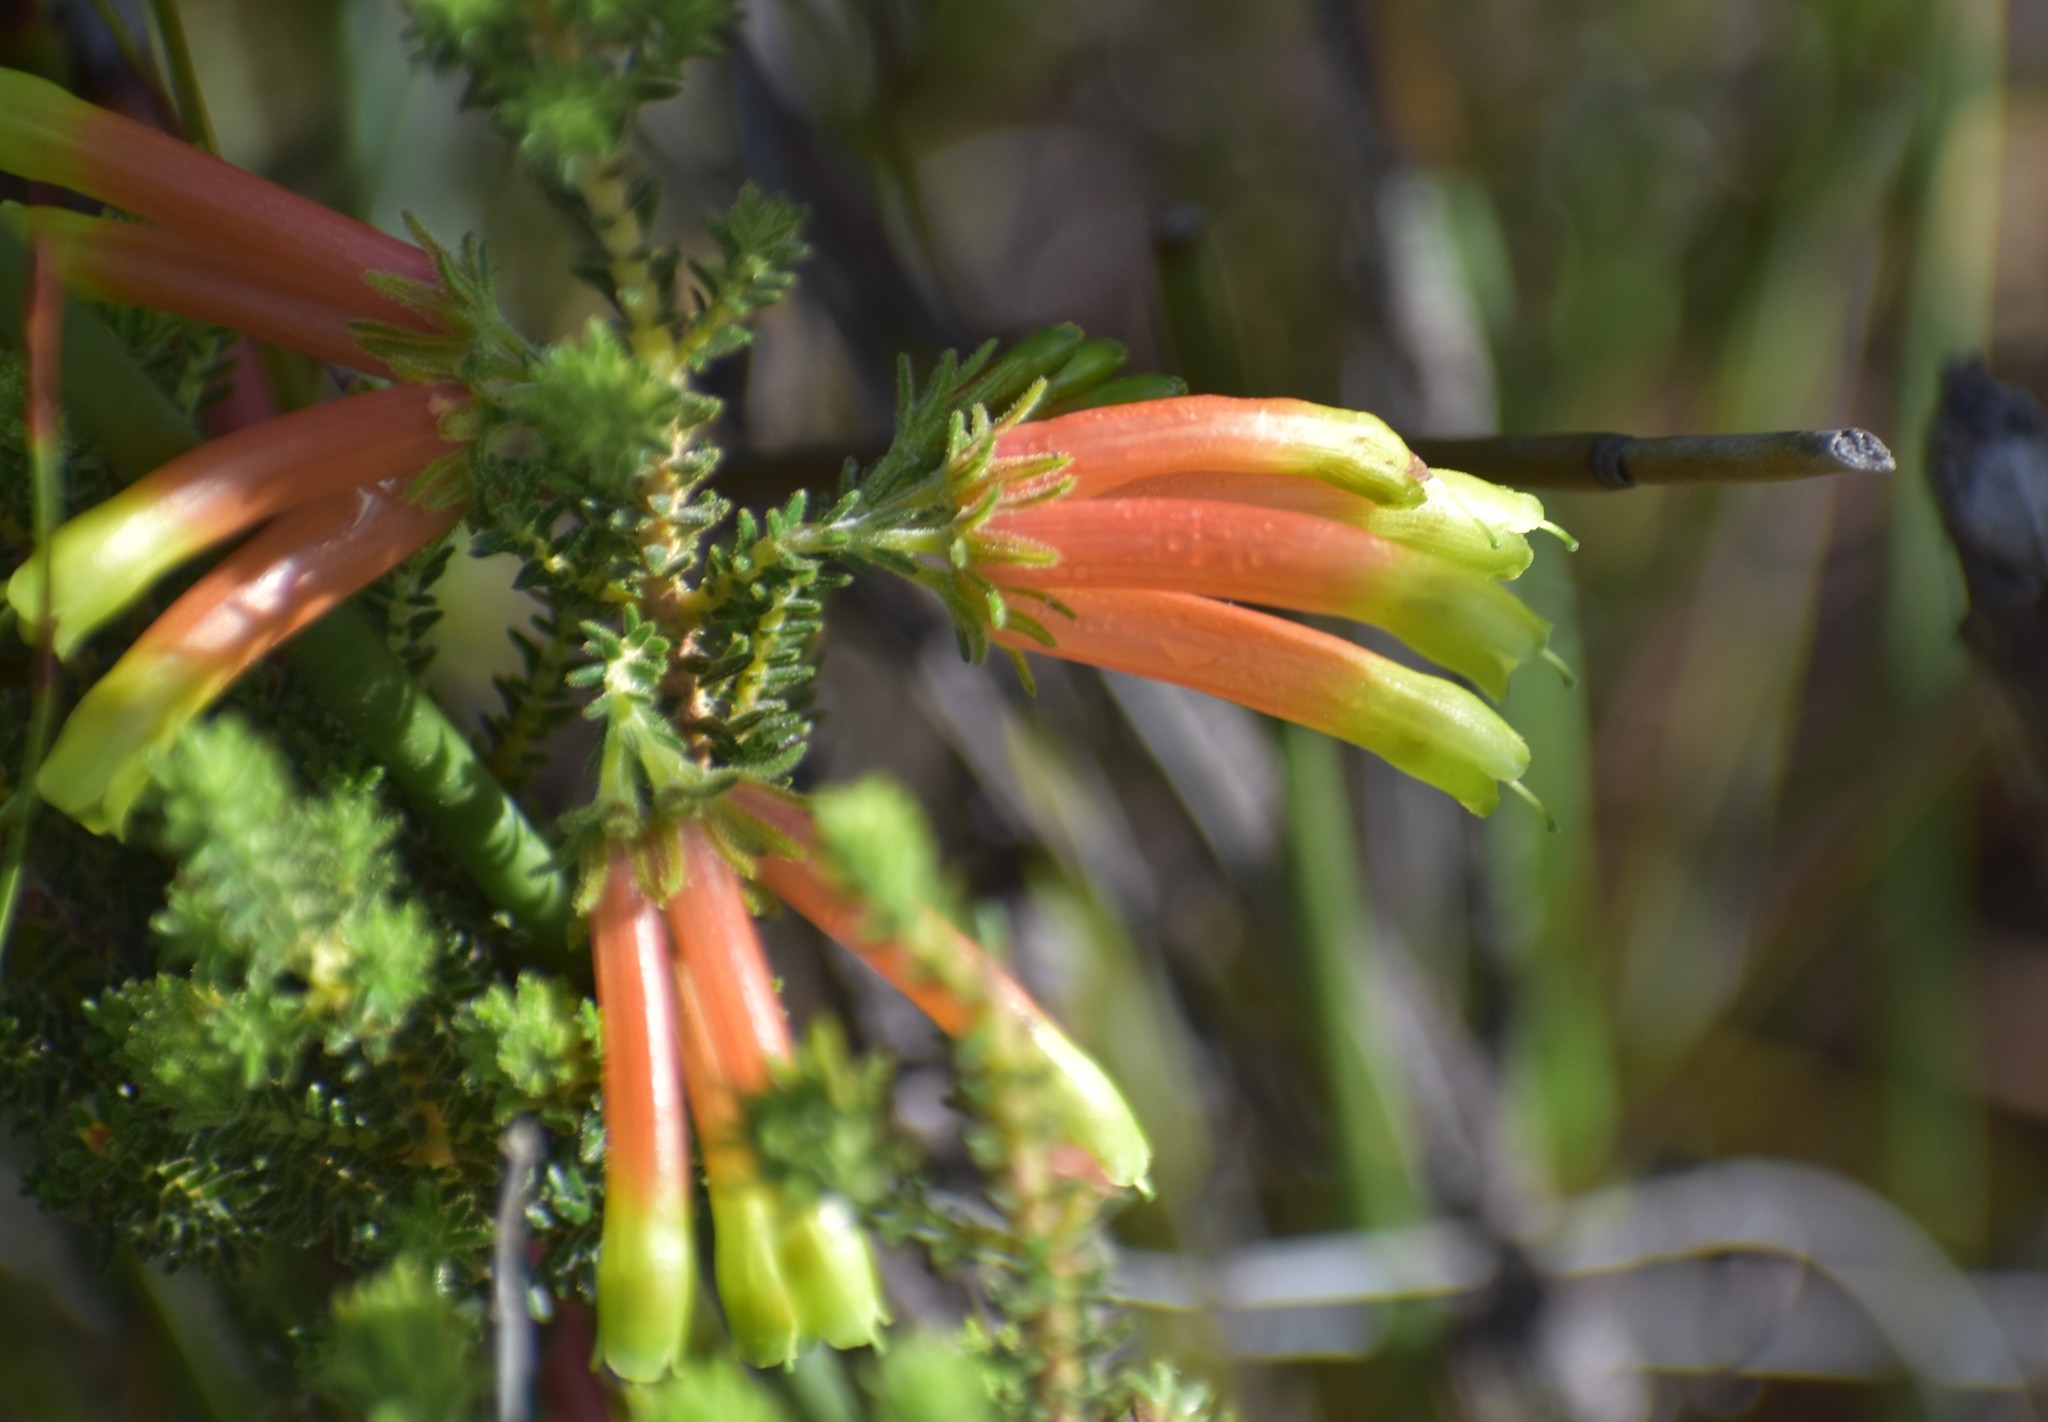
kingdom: Plantae
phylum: Tracheophyta
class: Magnoliopsida
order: Ericales
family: Ericaceae
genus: Erica
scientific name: Erica croceovirens
